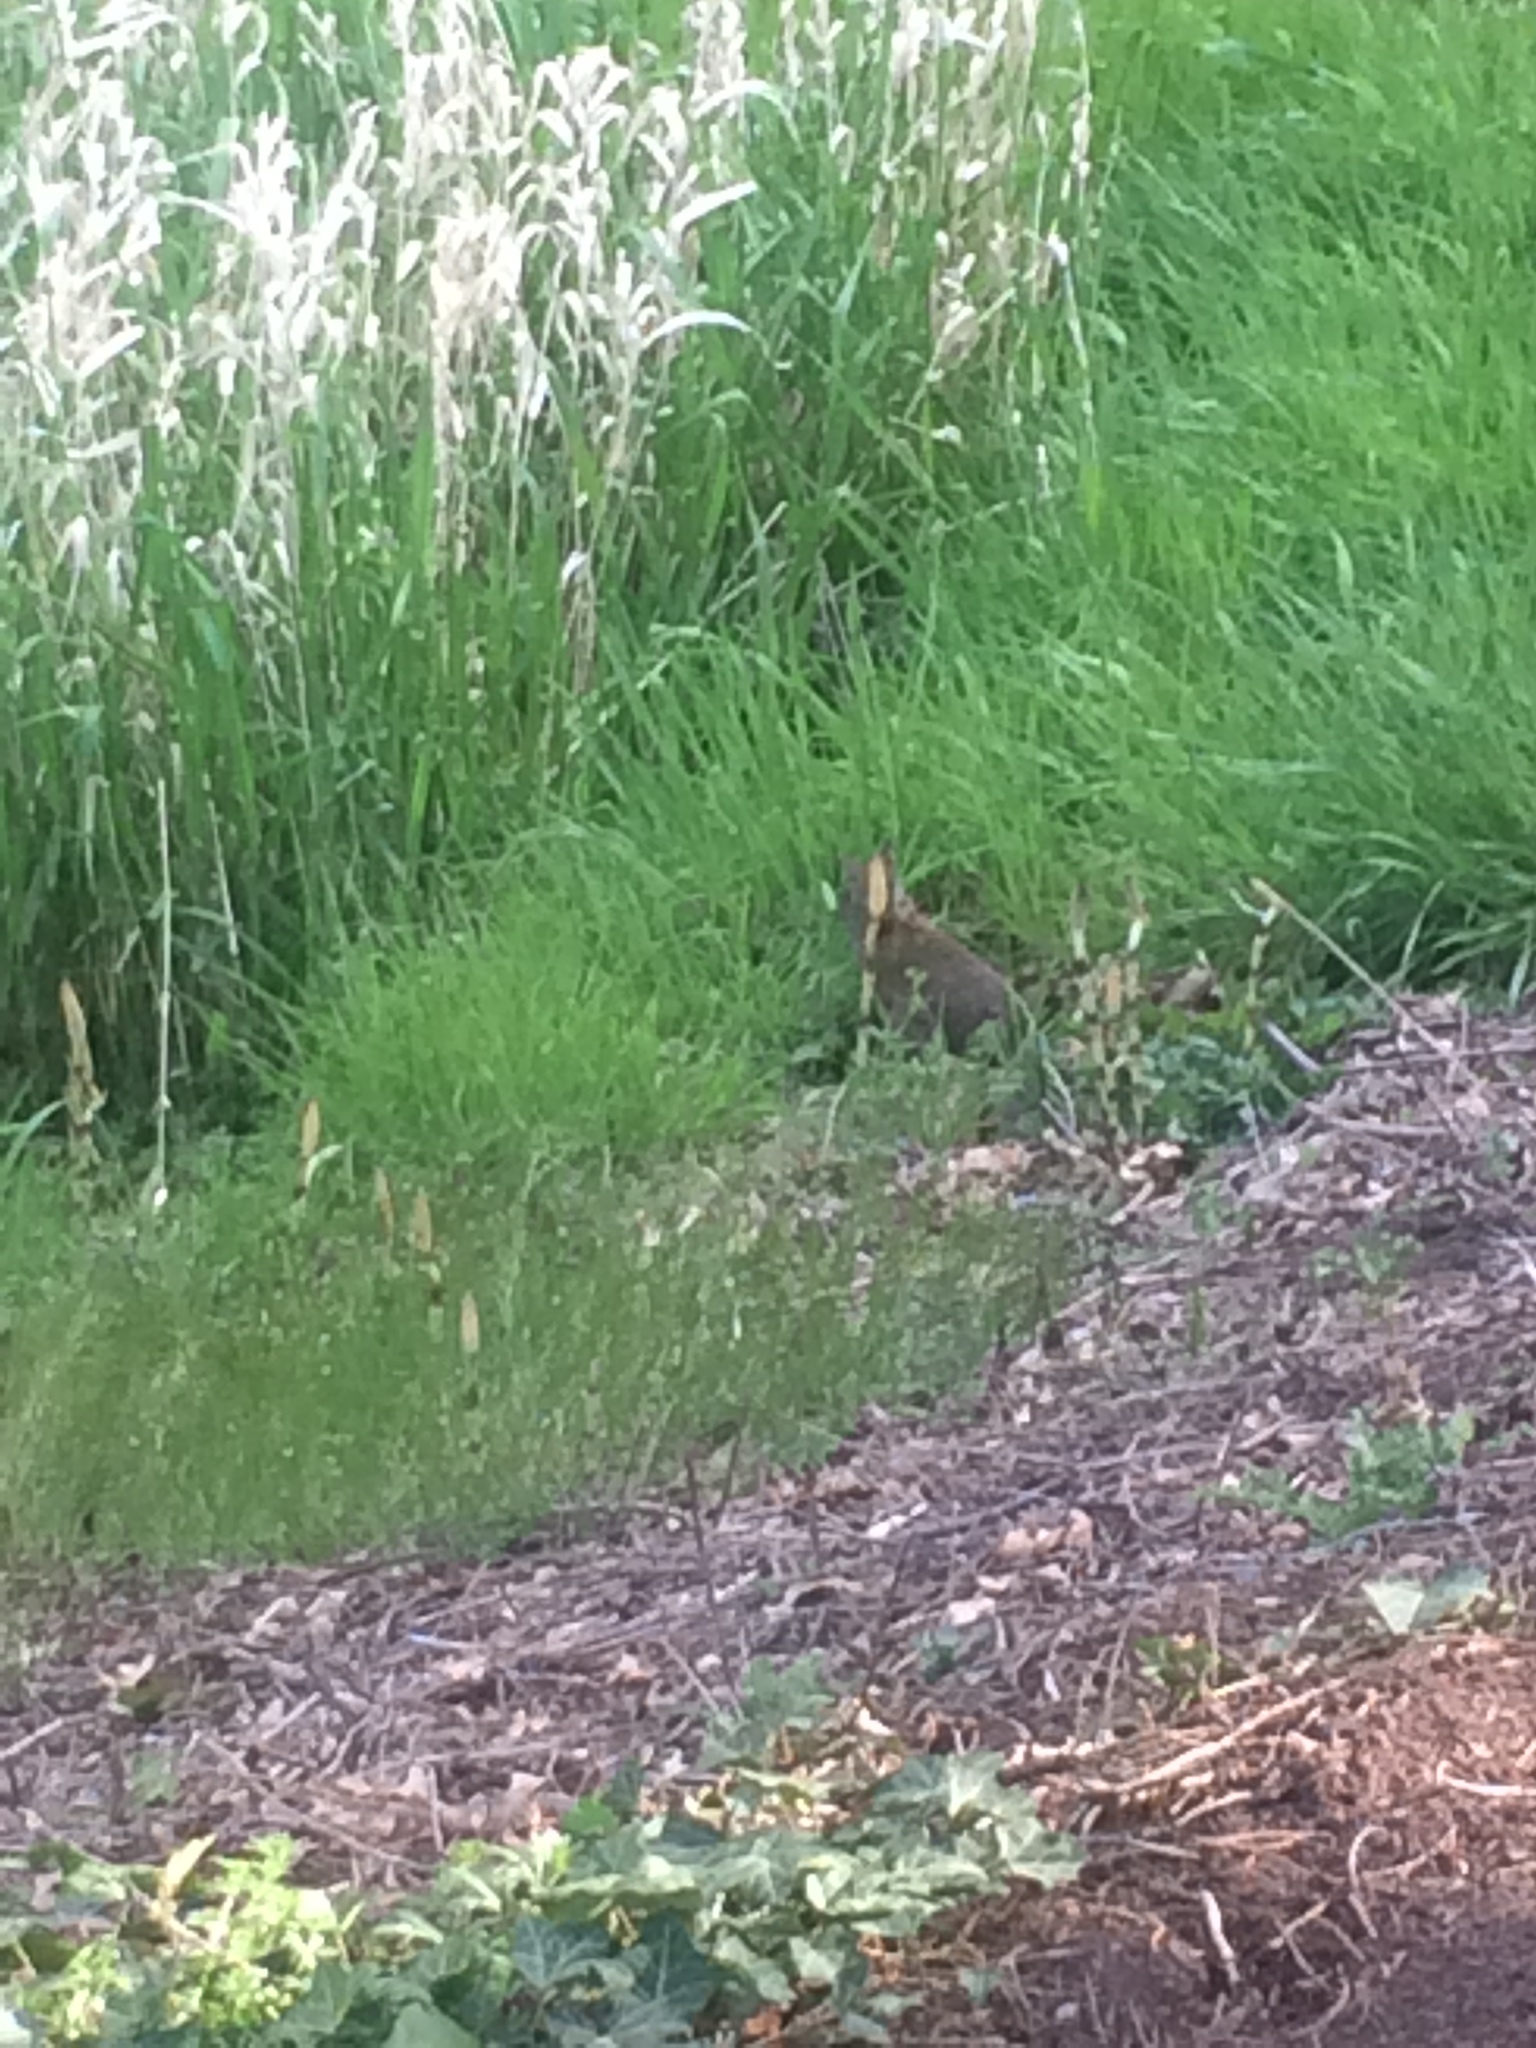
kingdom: Animalia
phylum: Chordata
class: Mammalia
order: Lagomorpha
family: Leporidae
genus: Sylvilagus
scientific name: Sylvilagus
